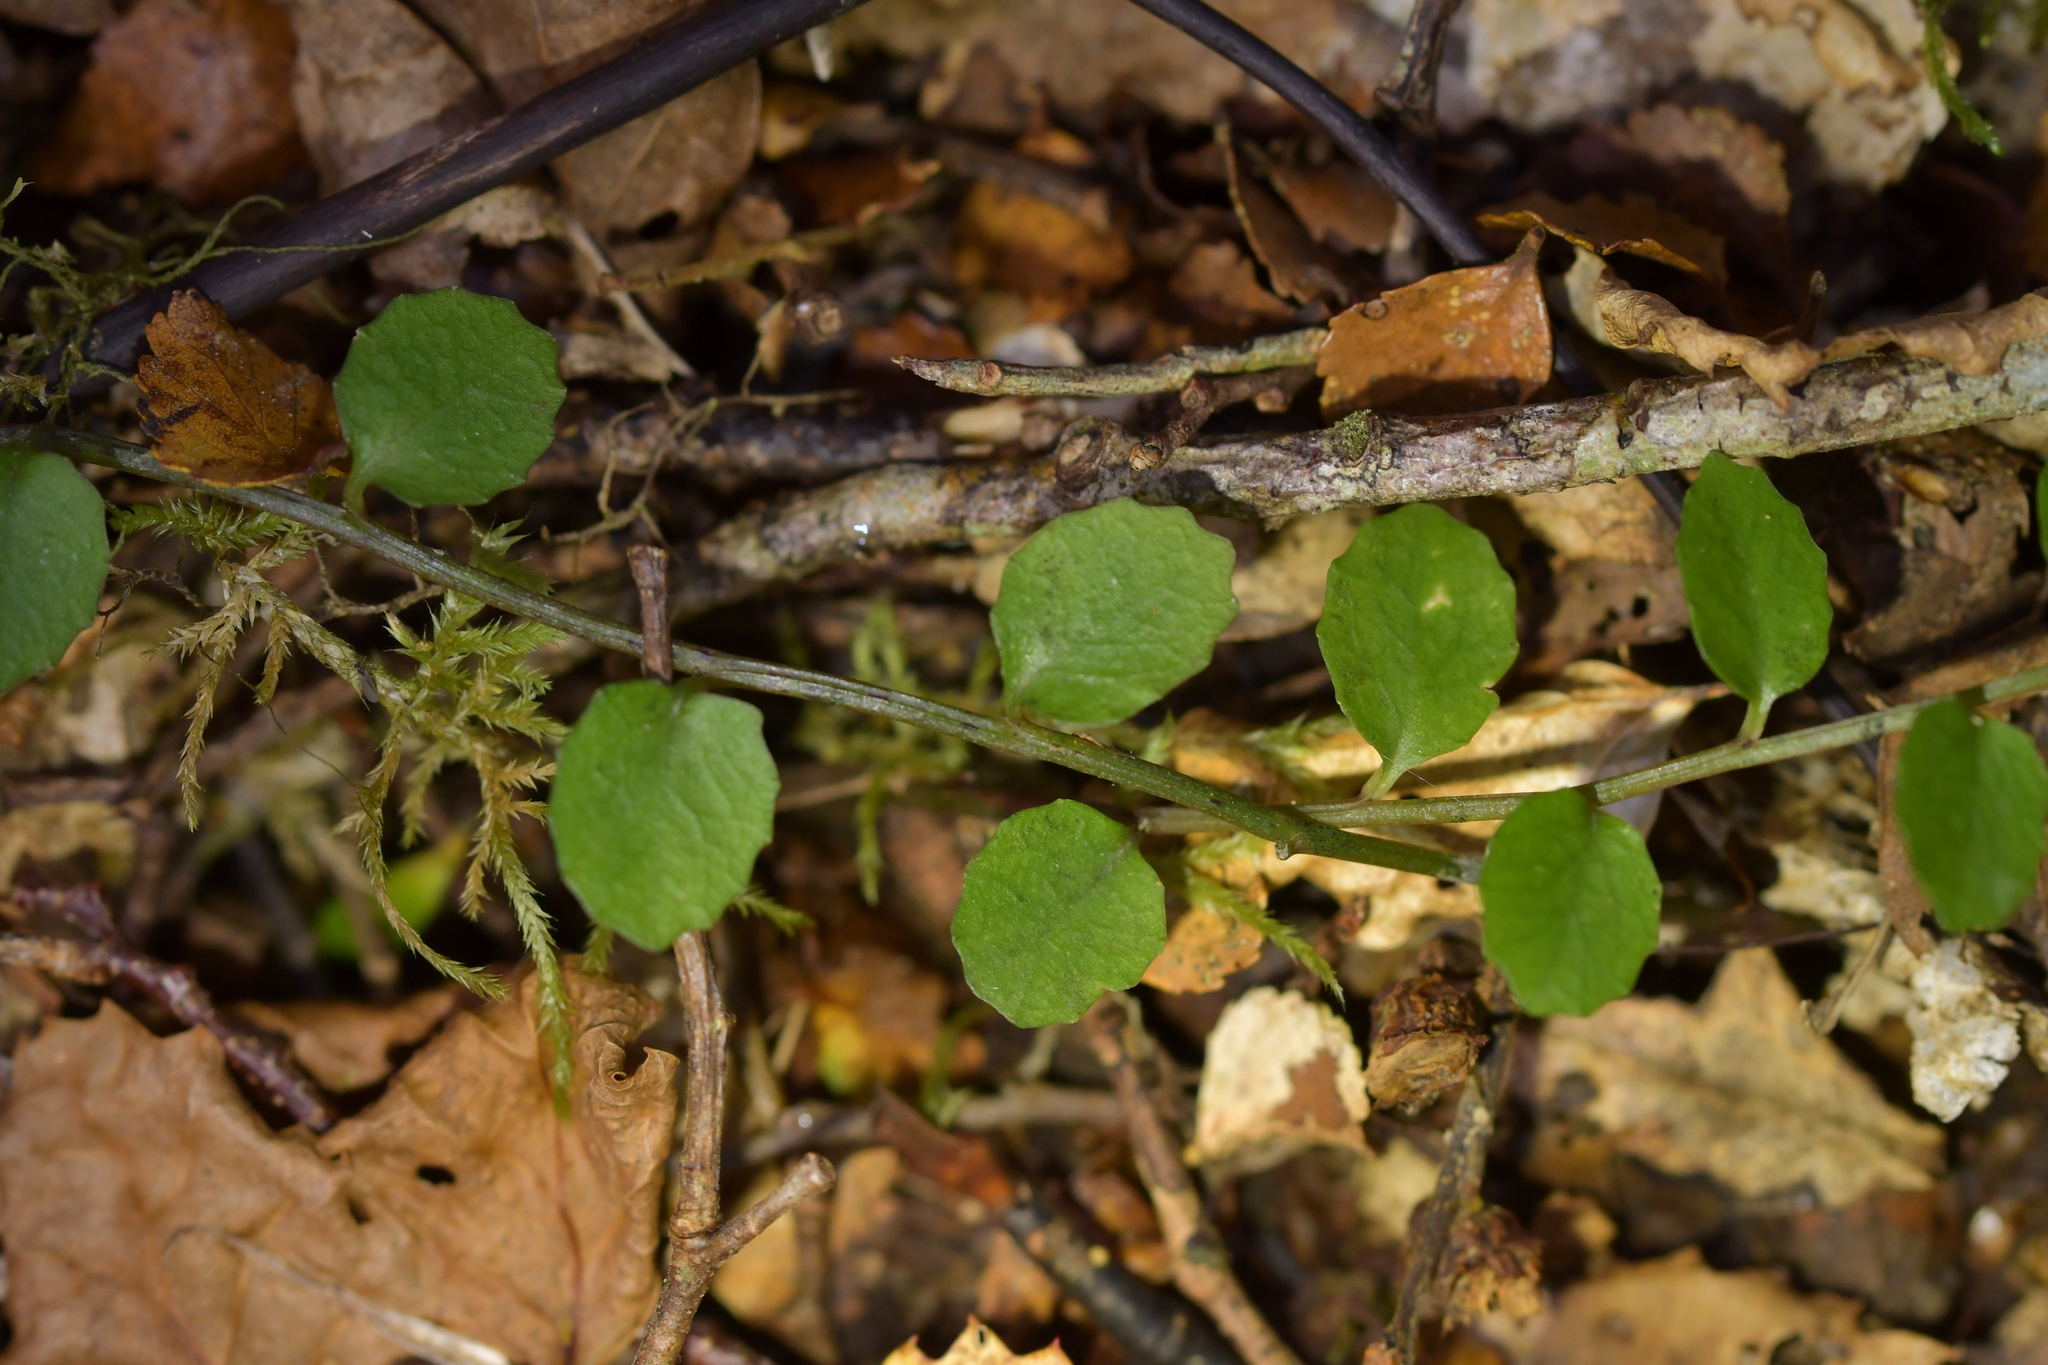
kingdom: Plantae
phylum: Tracheophyta
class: Magnoliopsida
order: Asterales
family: Campanulaceae
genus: Lobelia
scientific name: Lobelia angulata
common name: Lawn lobelia
